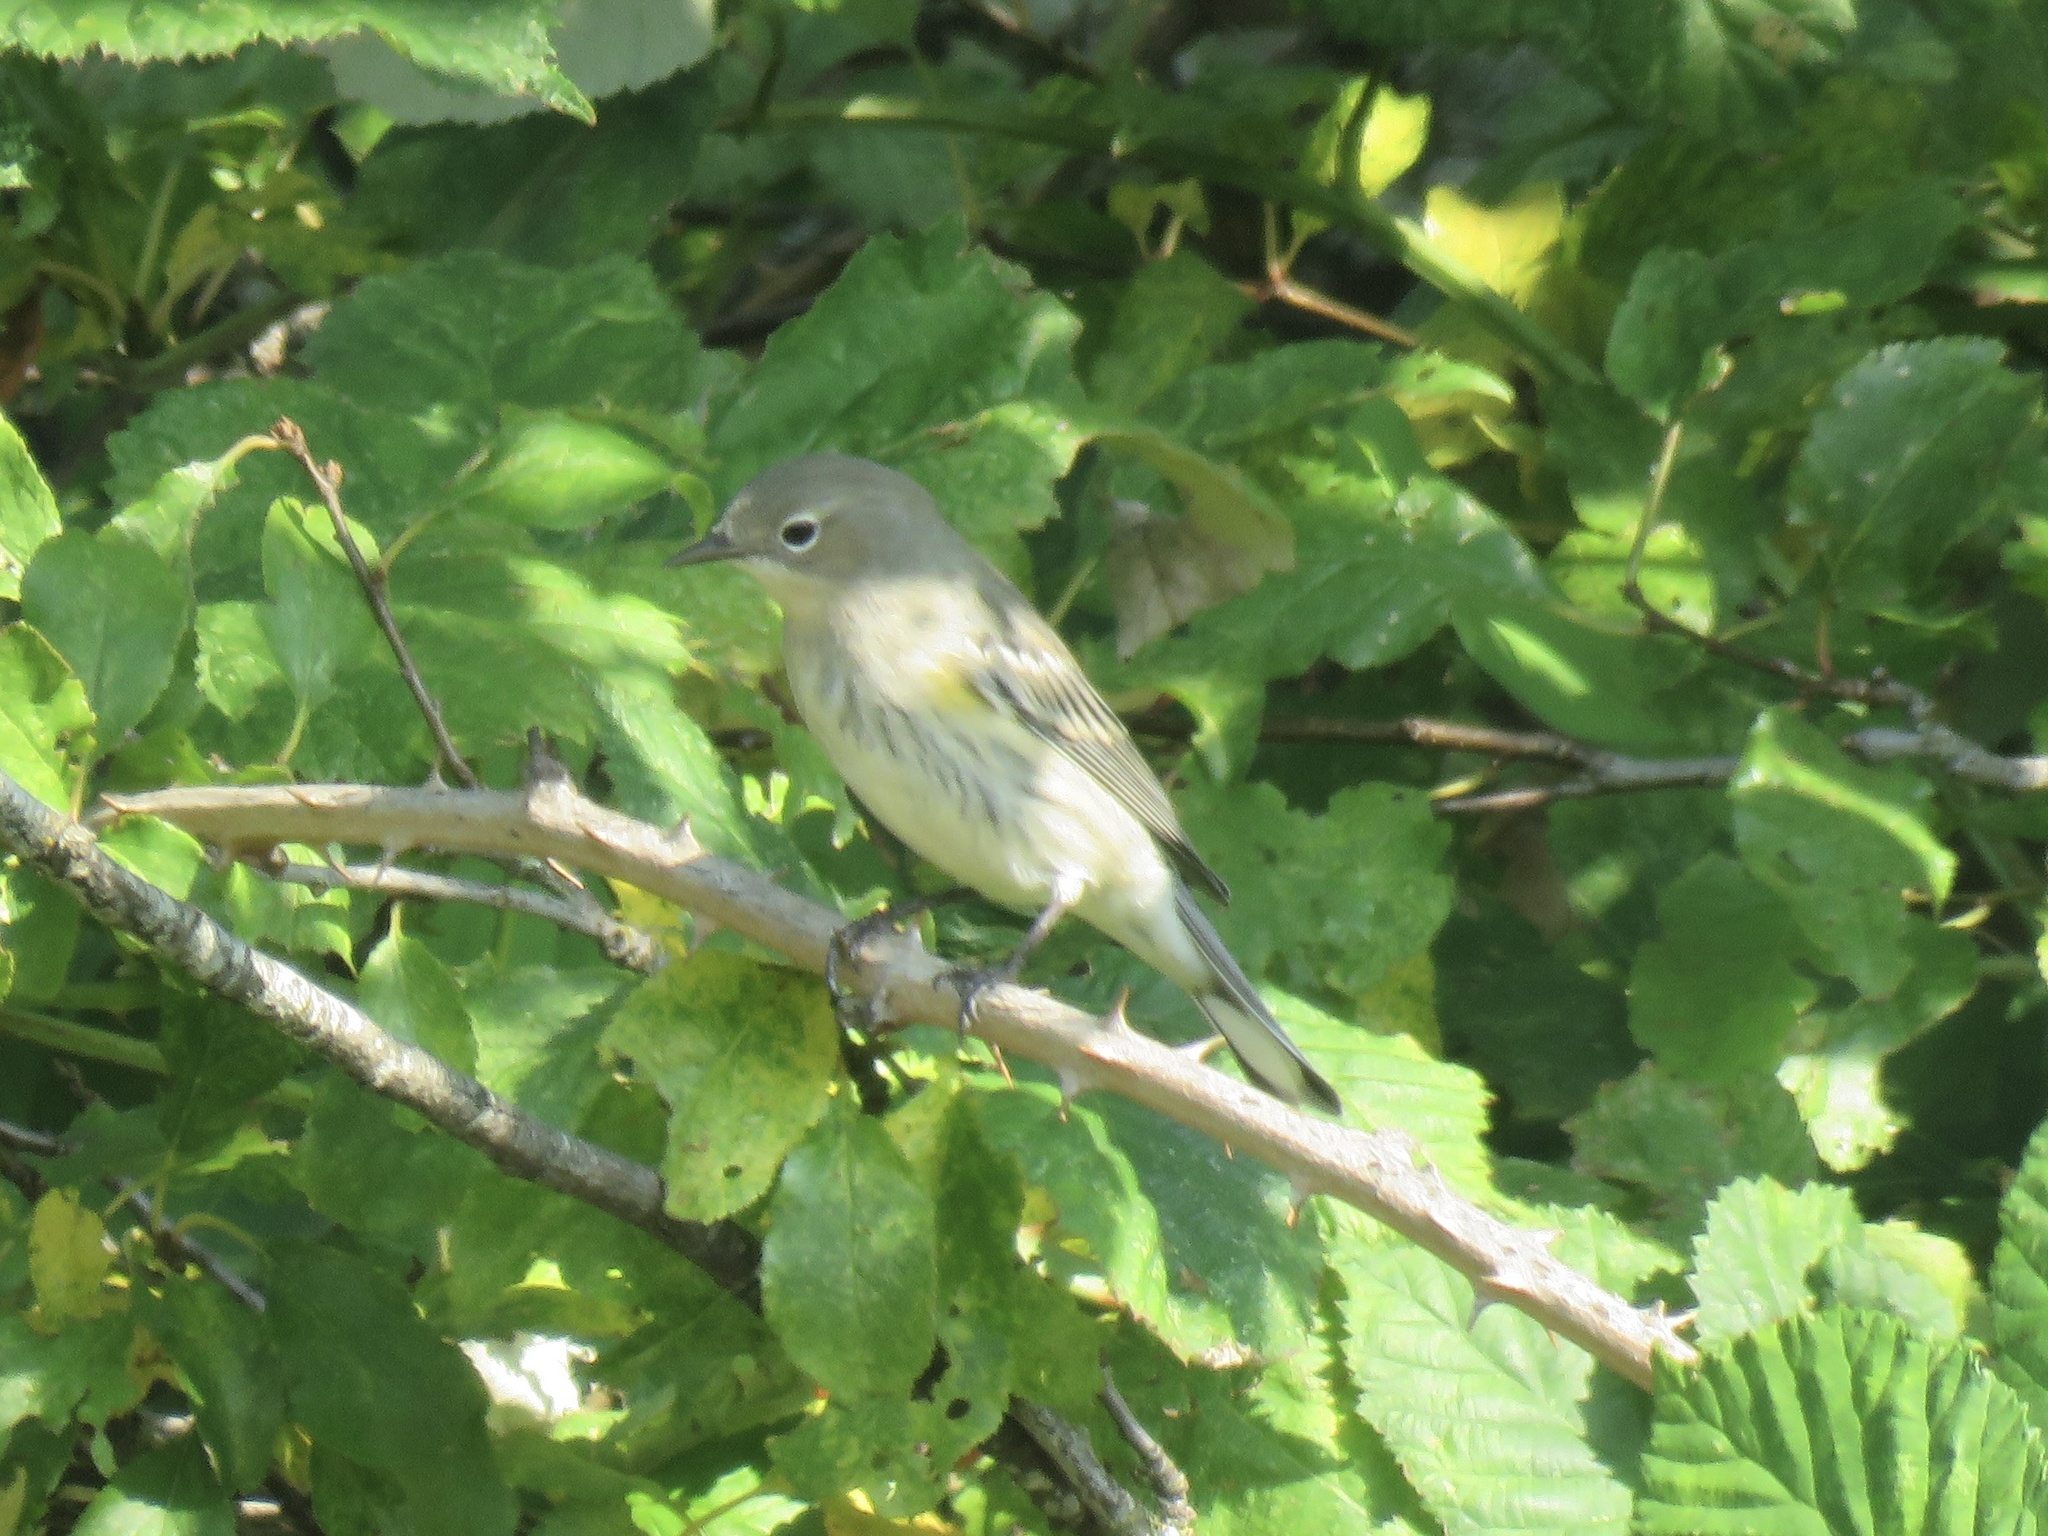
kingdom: Animalia
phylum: Chordata
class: Aves
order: Passeriformes
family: Parulidae
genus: Setophaga
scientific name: Setophaga coronata
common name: Myrtle warbler
